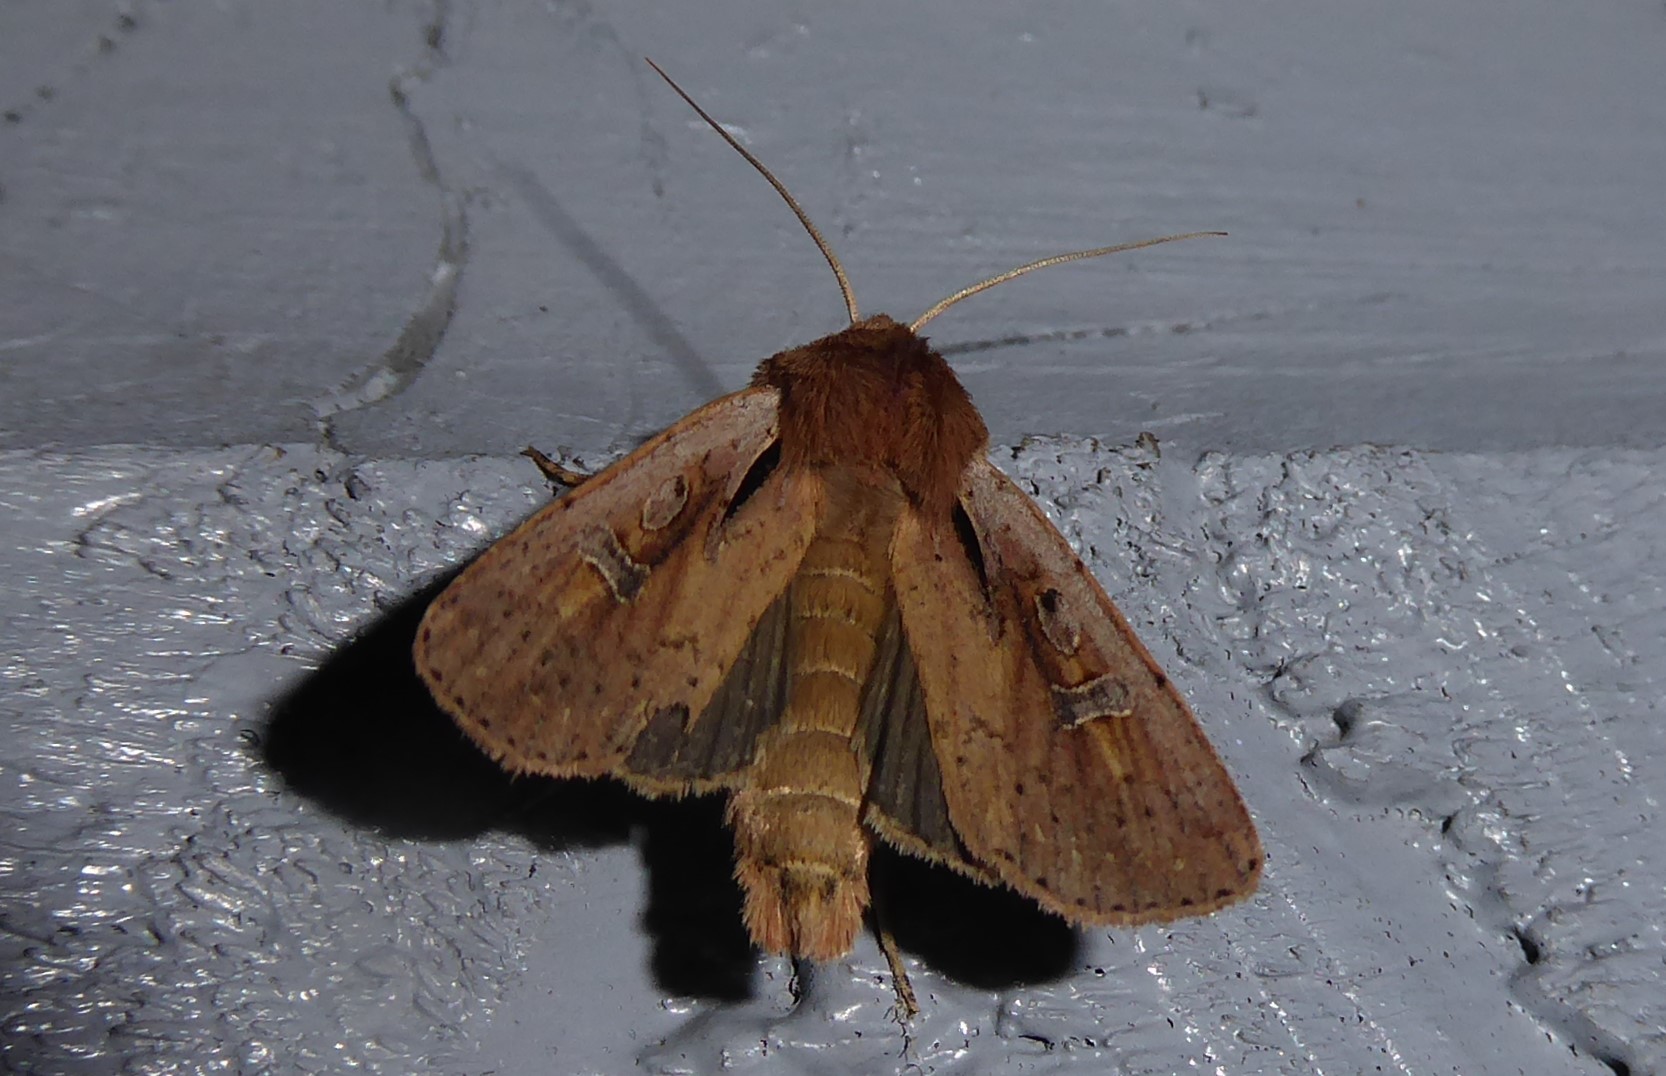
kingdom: Animalia
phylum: Arthropoda
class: Insecta
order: Lepidoptera
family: Noctuidae
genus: Ichneutica
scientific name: Ichneutica atristriga
